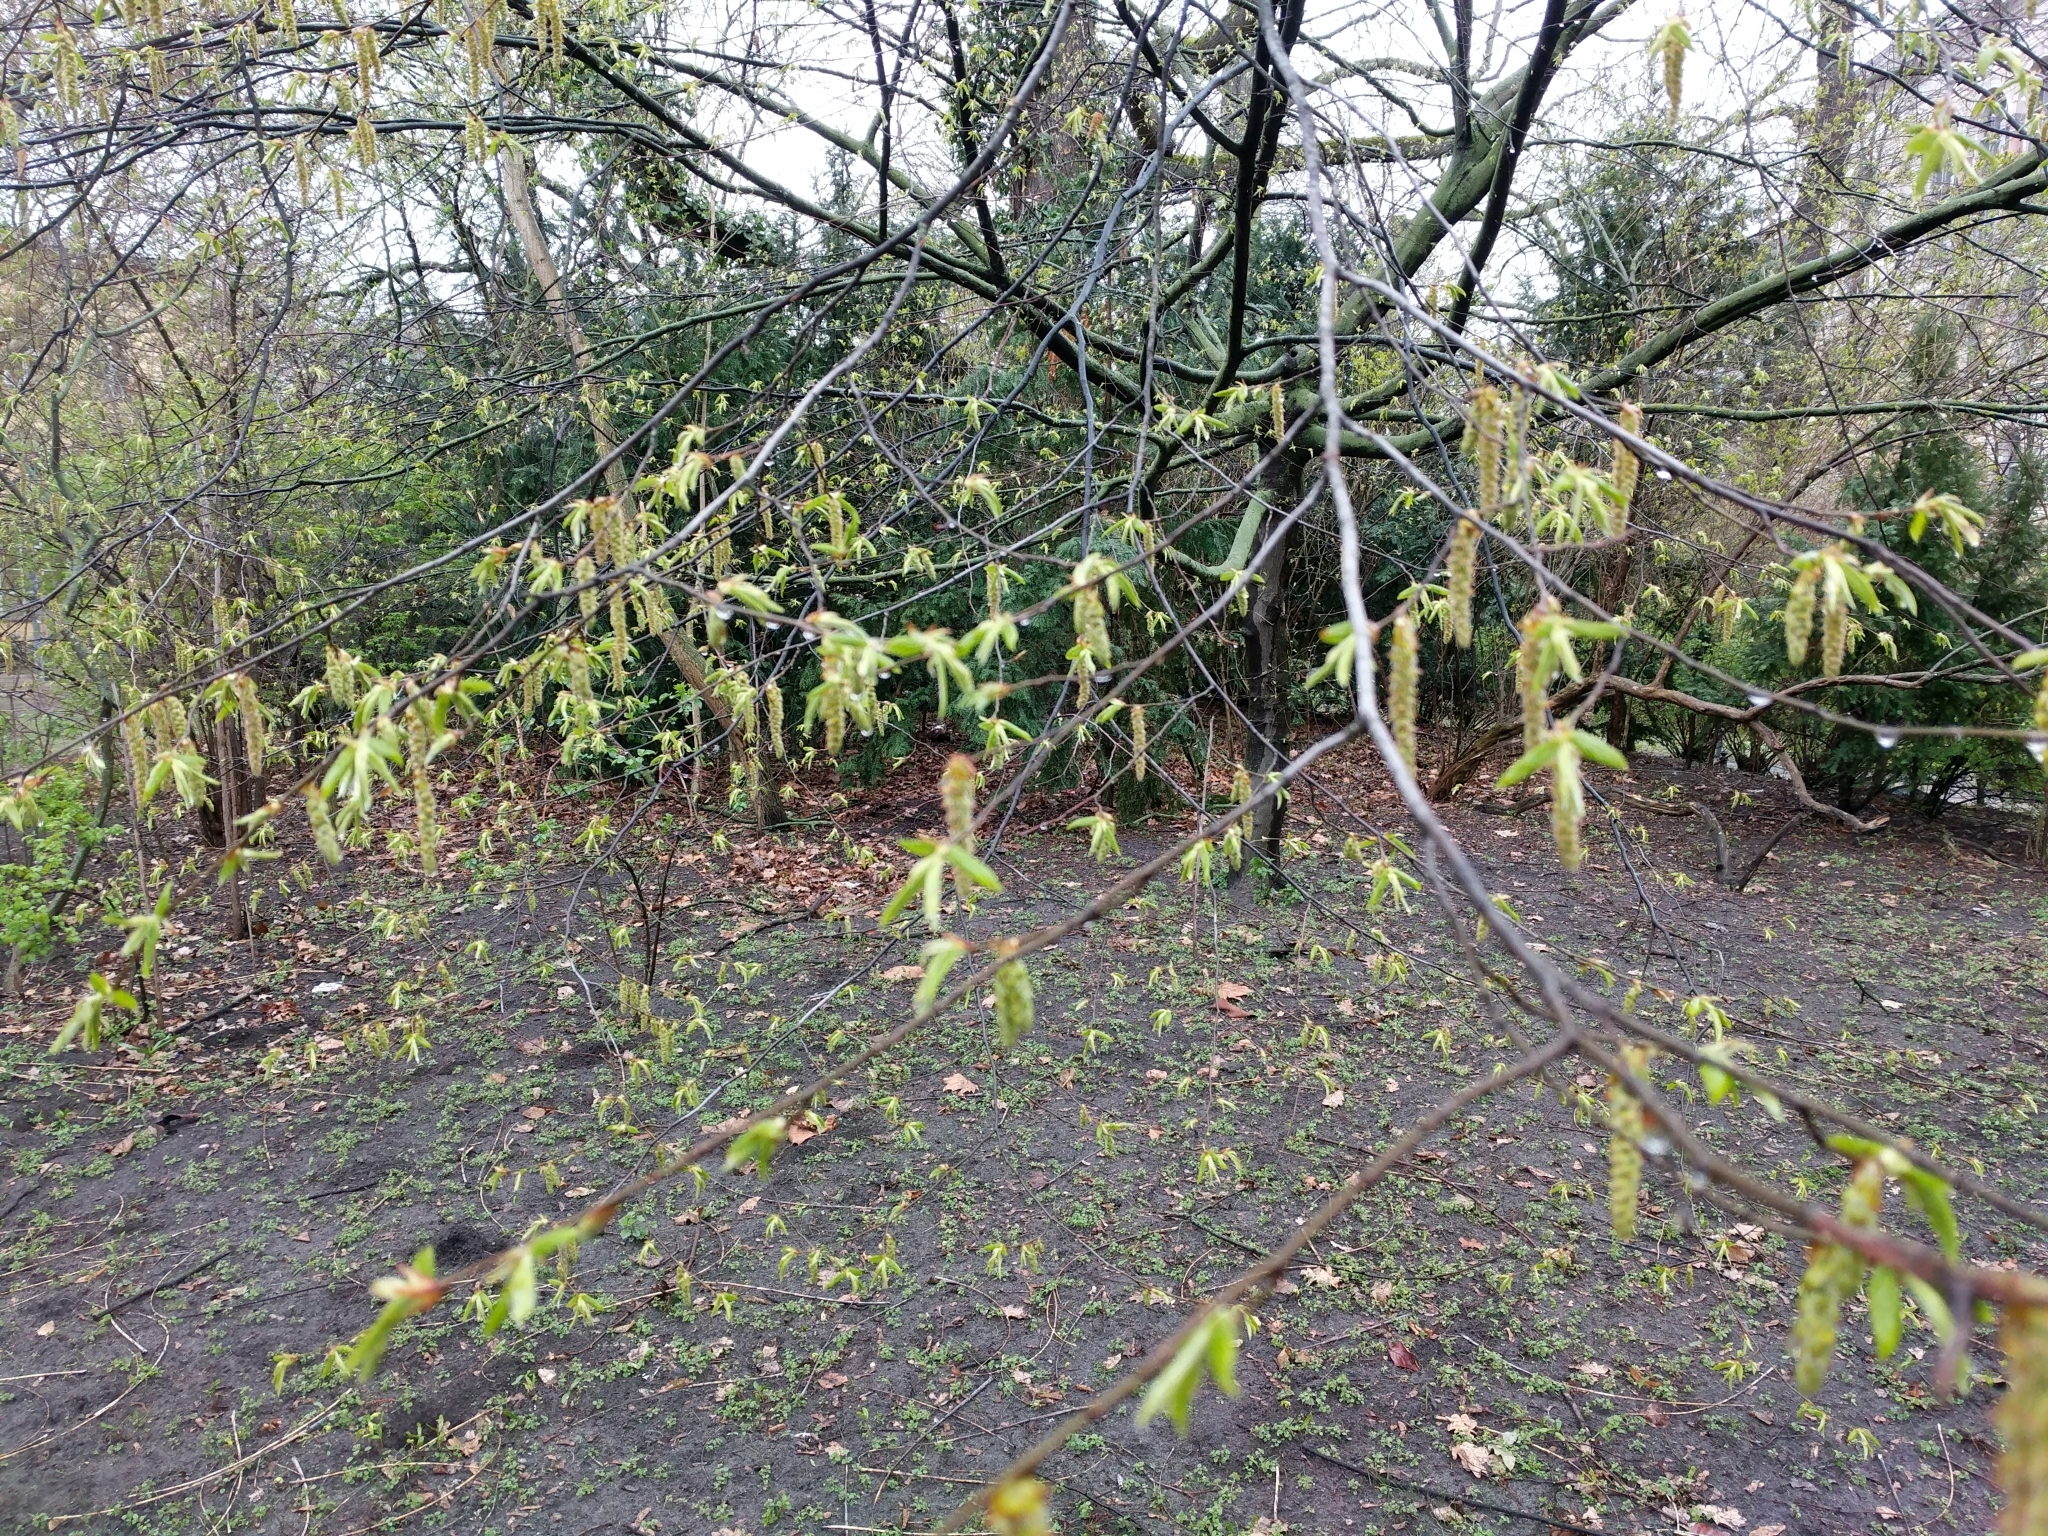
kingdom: Plantae
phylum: Tracheophyta
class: Magnoliopsida
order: Fagales
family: Betulaceae
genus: Carpinus
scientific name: Carpinus betulus
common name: Hornbeam
